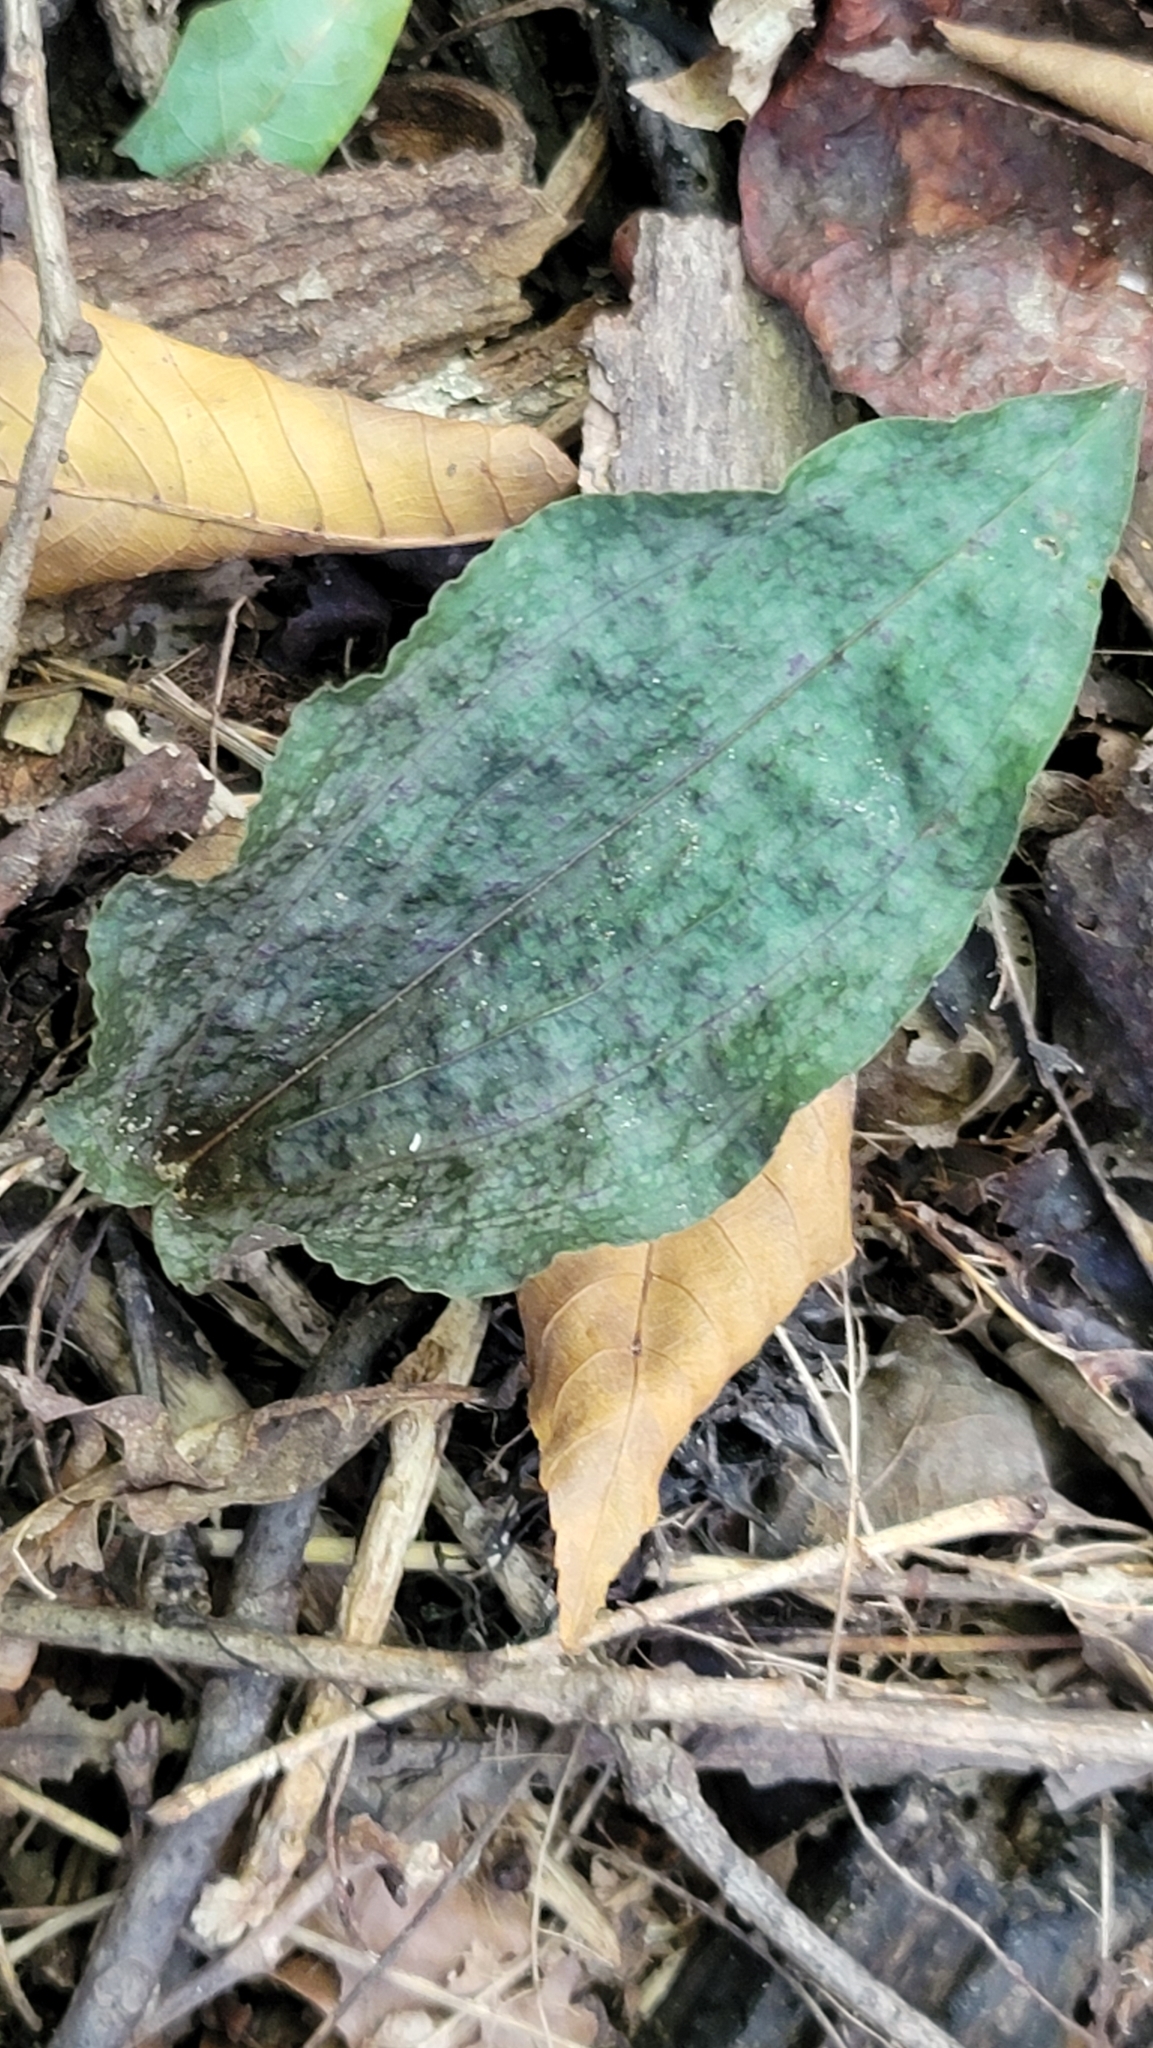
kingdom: Plantae
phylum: Tracheophyta
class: Liliopsida
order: Asparagales
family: Orchidaceae
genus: Tipularia
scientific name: Tipularia discolor
